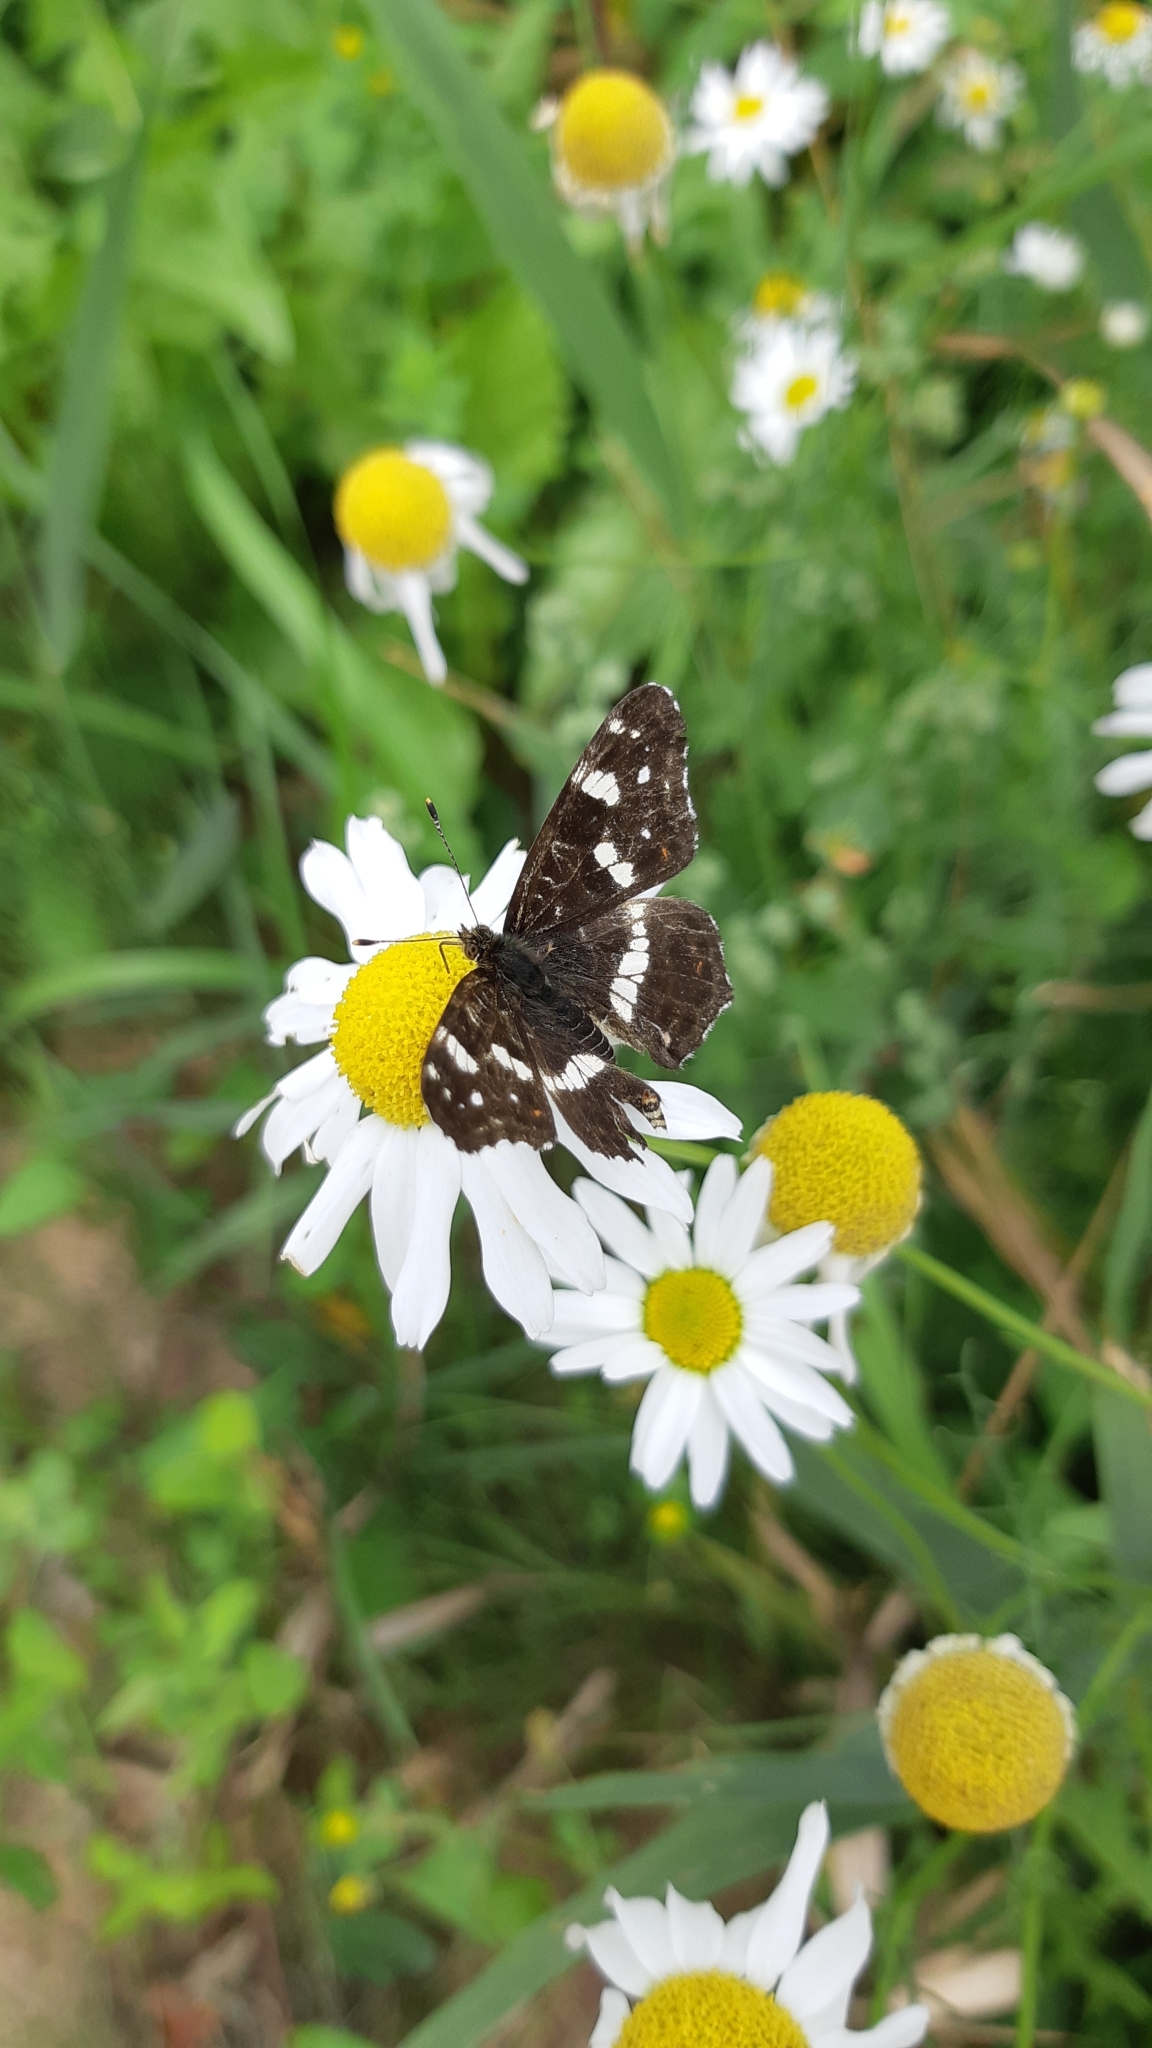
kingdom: Animalia
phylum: Arthropoda
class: Insecta
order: Lepidoptera
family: Nymphalidae
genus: Araschnia
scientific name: Araschnia levana
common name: Map butterfly
